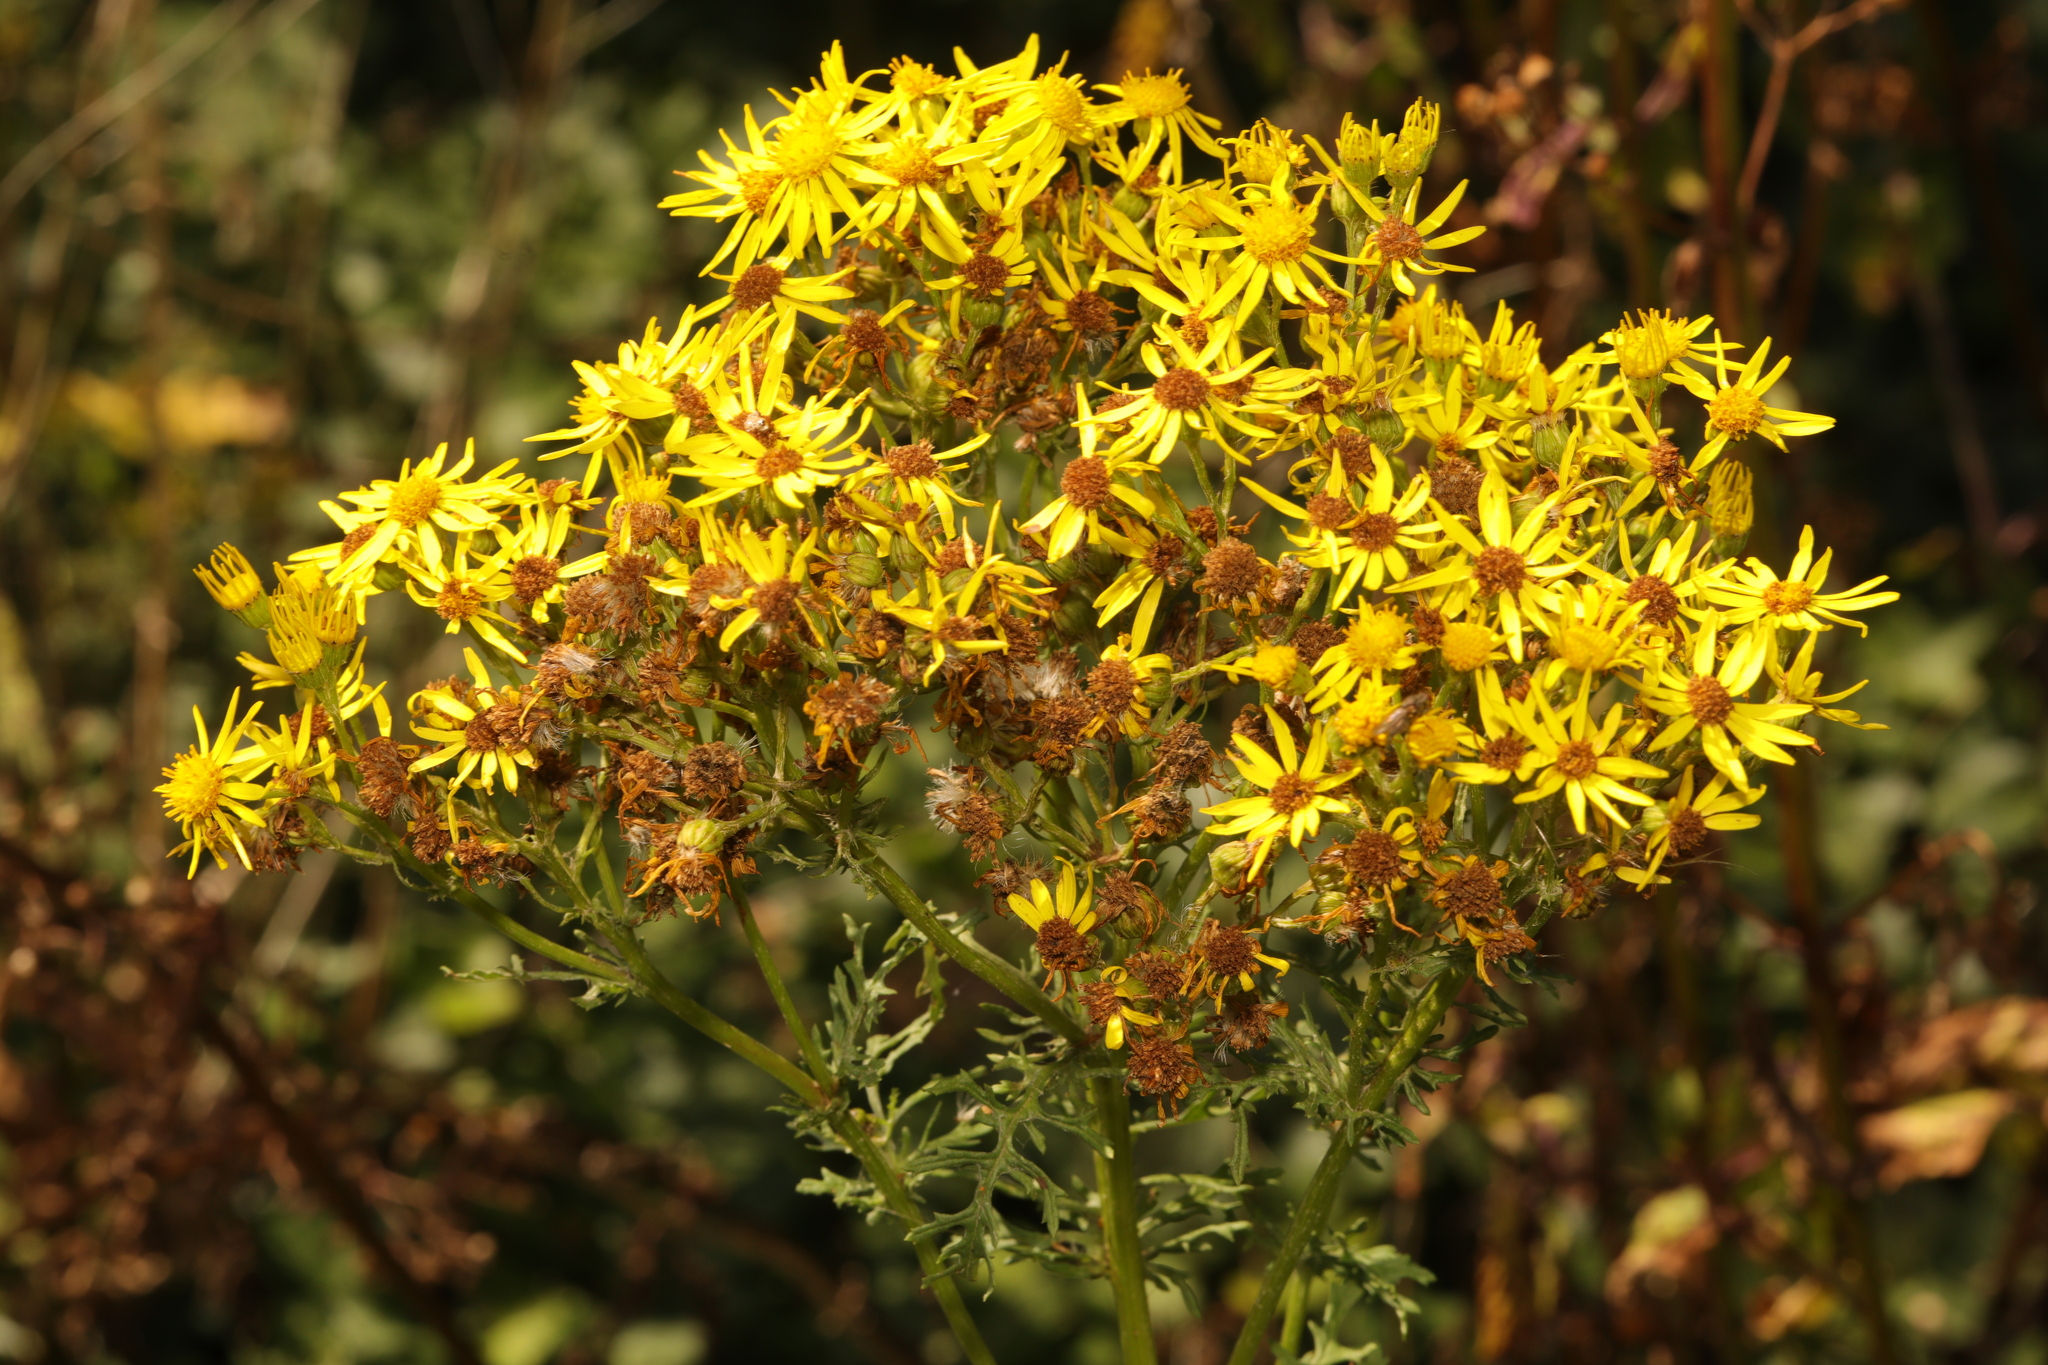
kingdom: Plantae
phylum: Tracheophyta
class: Magnoliopsida
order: Asterales
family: Asteraceae
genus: Jacobaea
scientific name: Jacobaea vulgaris
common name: Stinking willie
